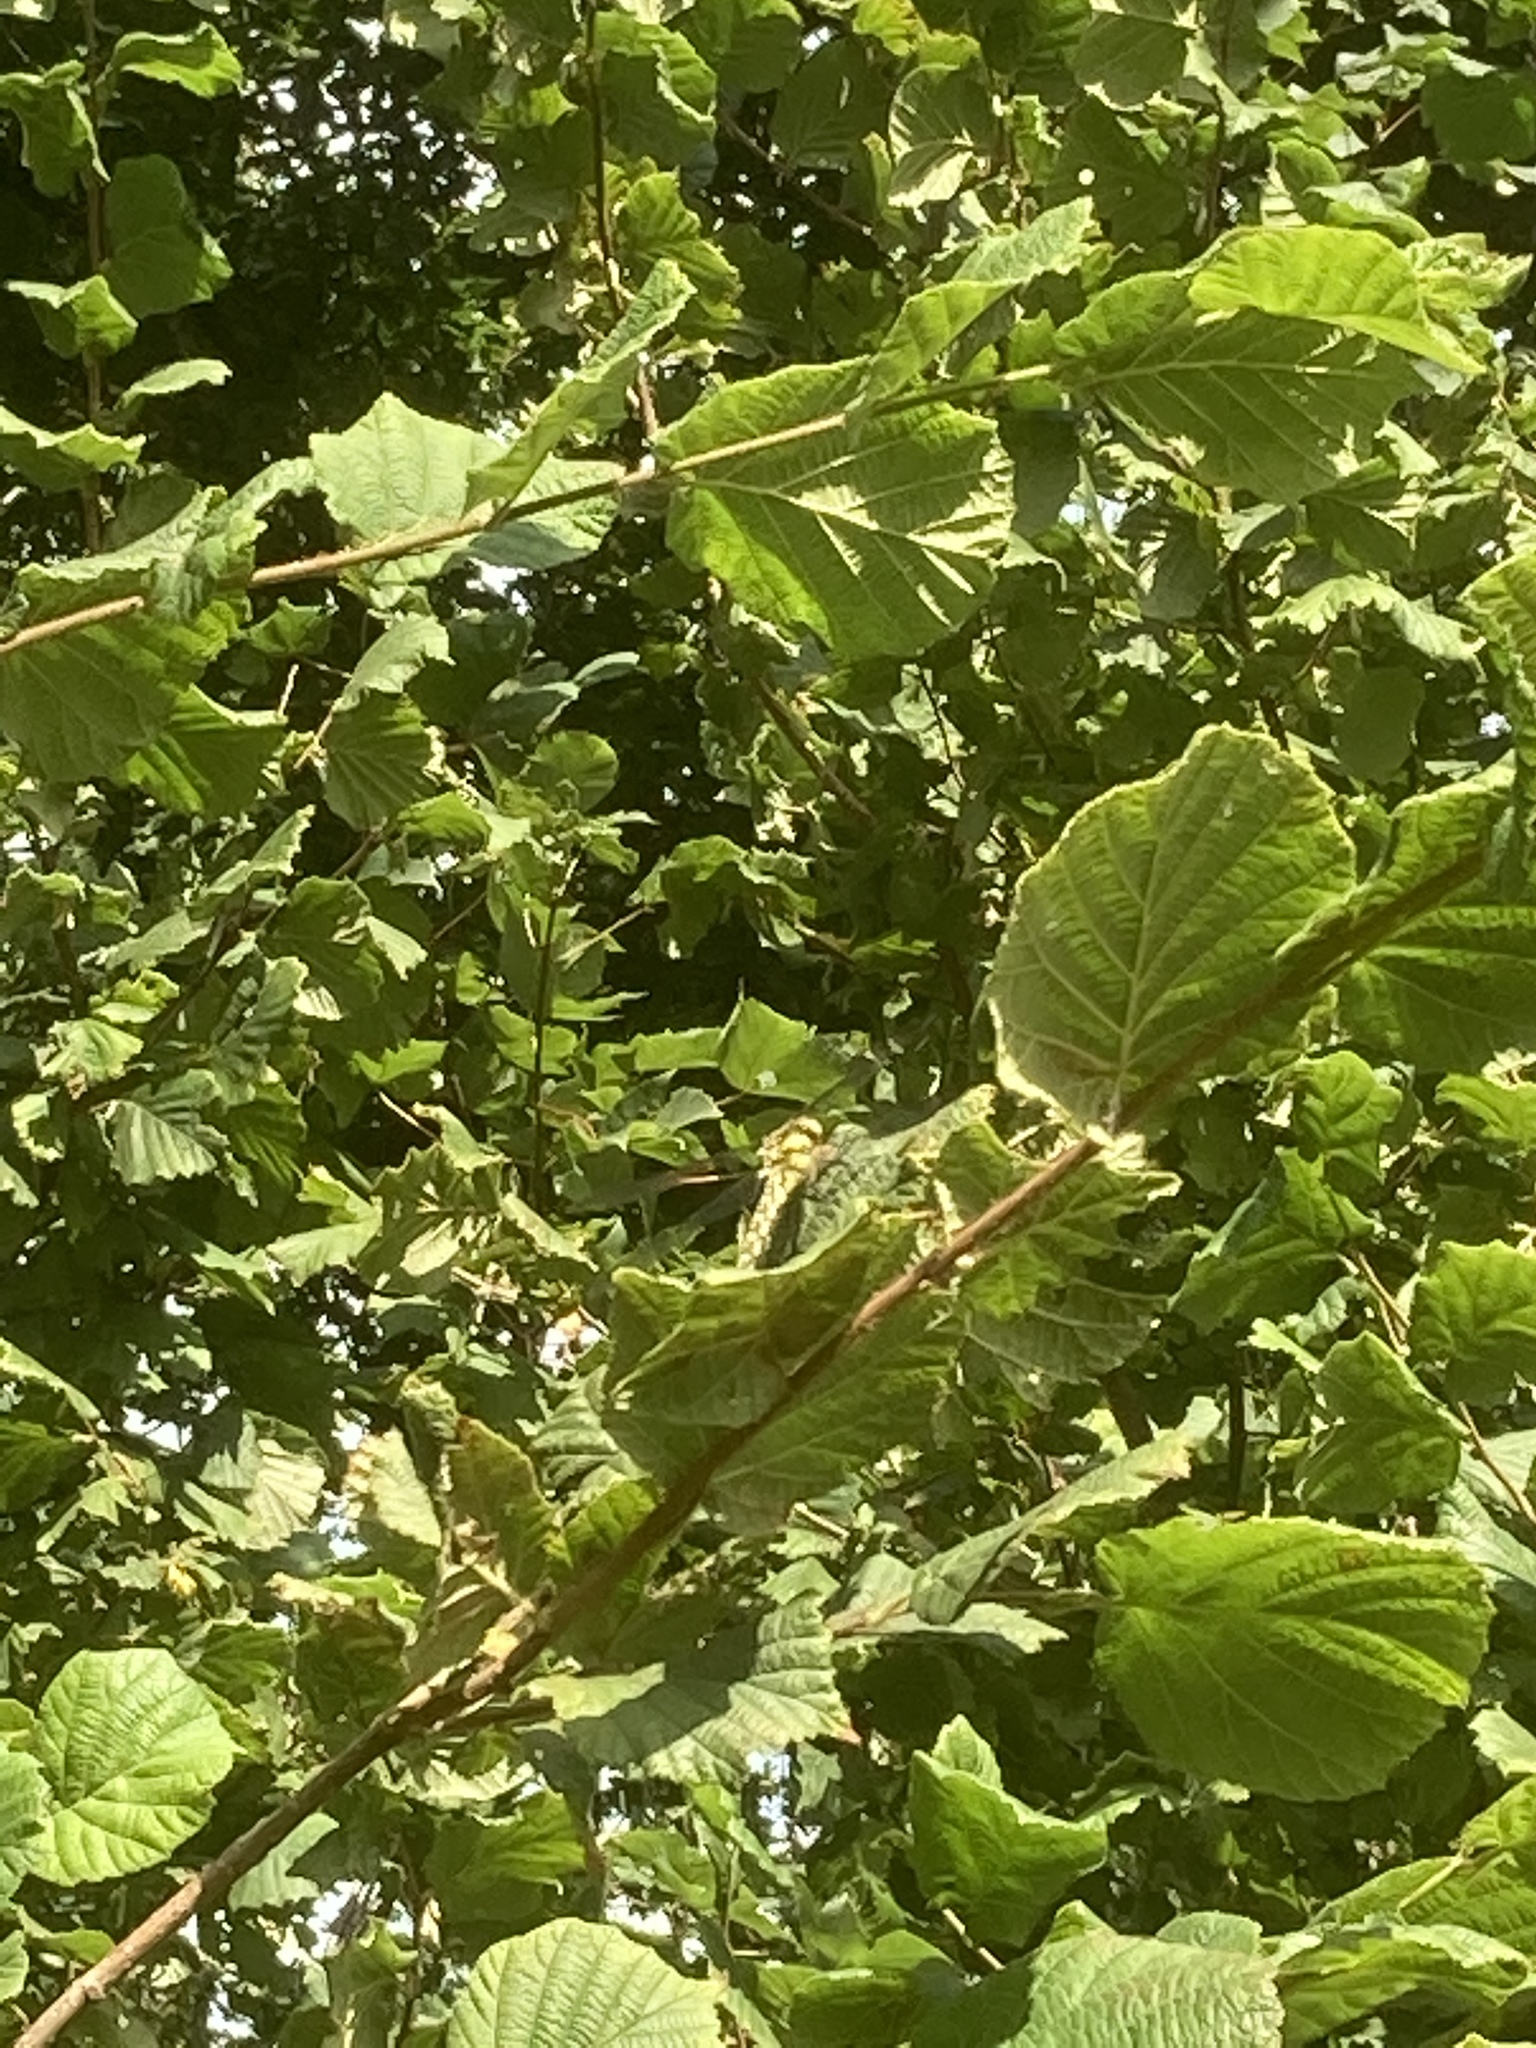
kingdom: Plantae
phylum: Tracheophyta
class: Magnoliopsida
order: Fagales
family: Betulaceae
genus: Corylus
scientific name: Corylus avellana
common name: European hazel
